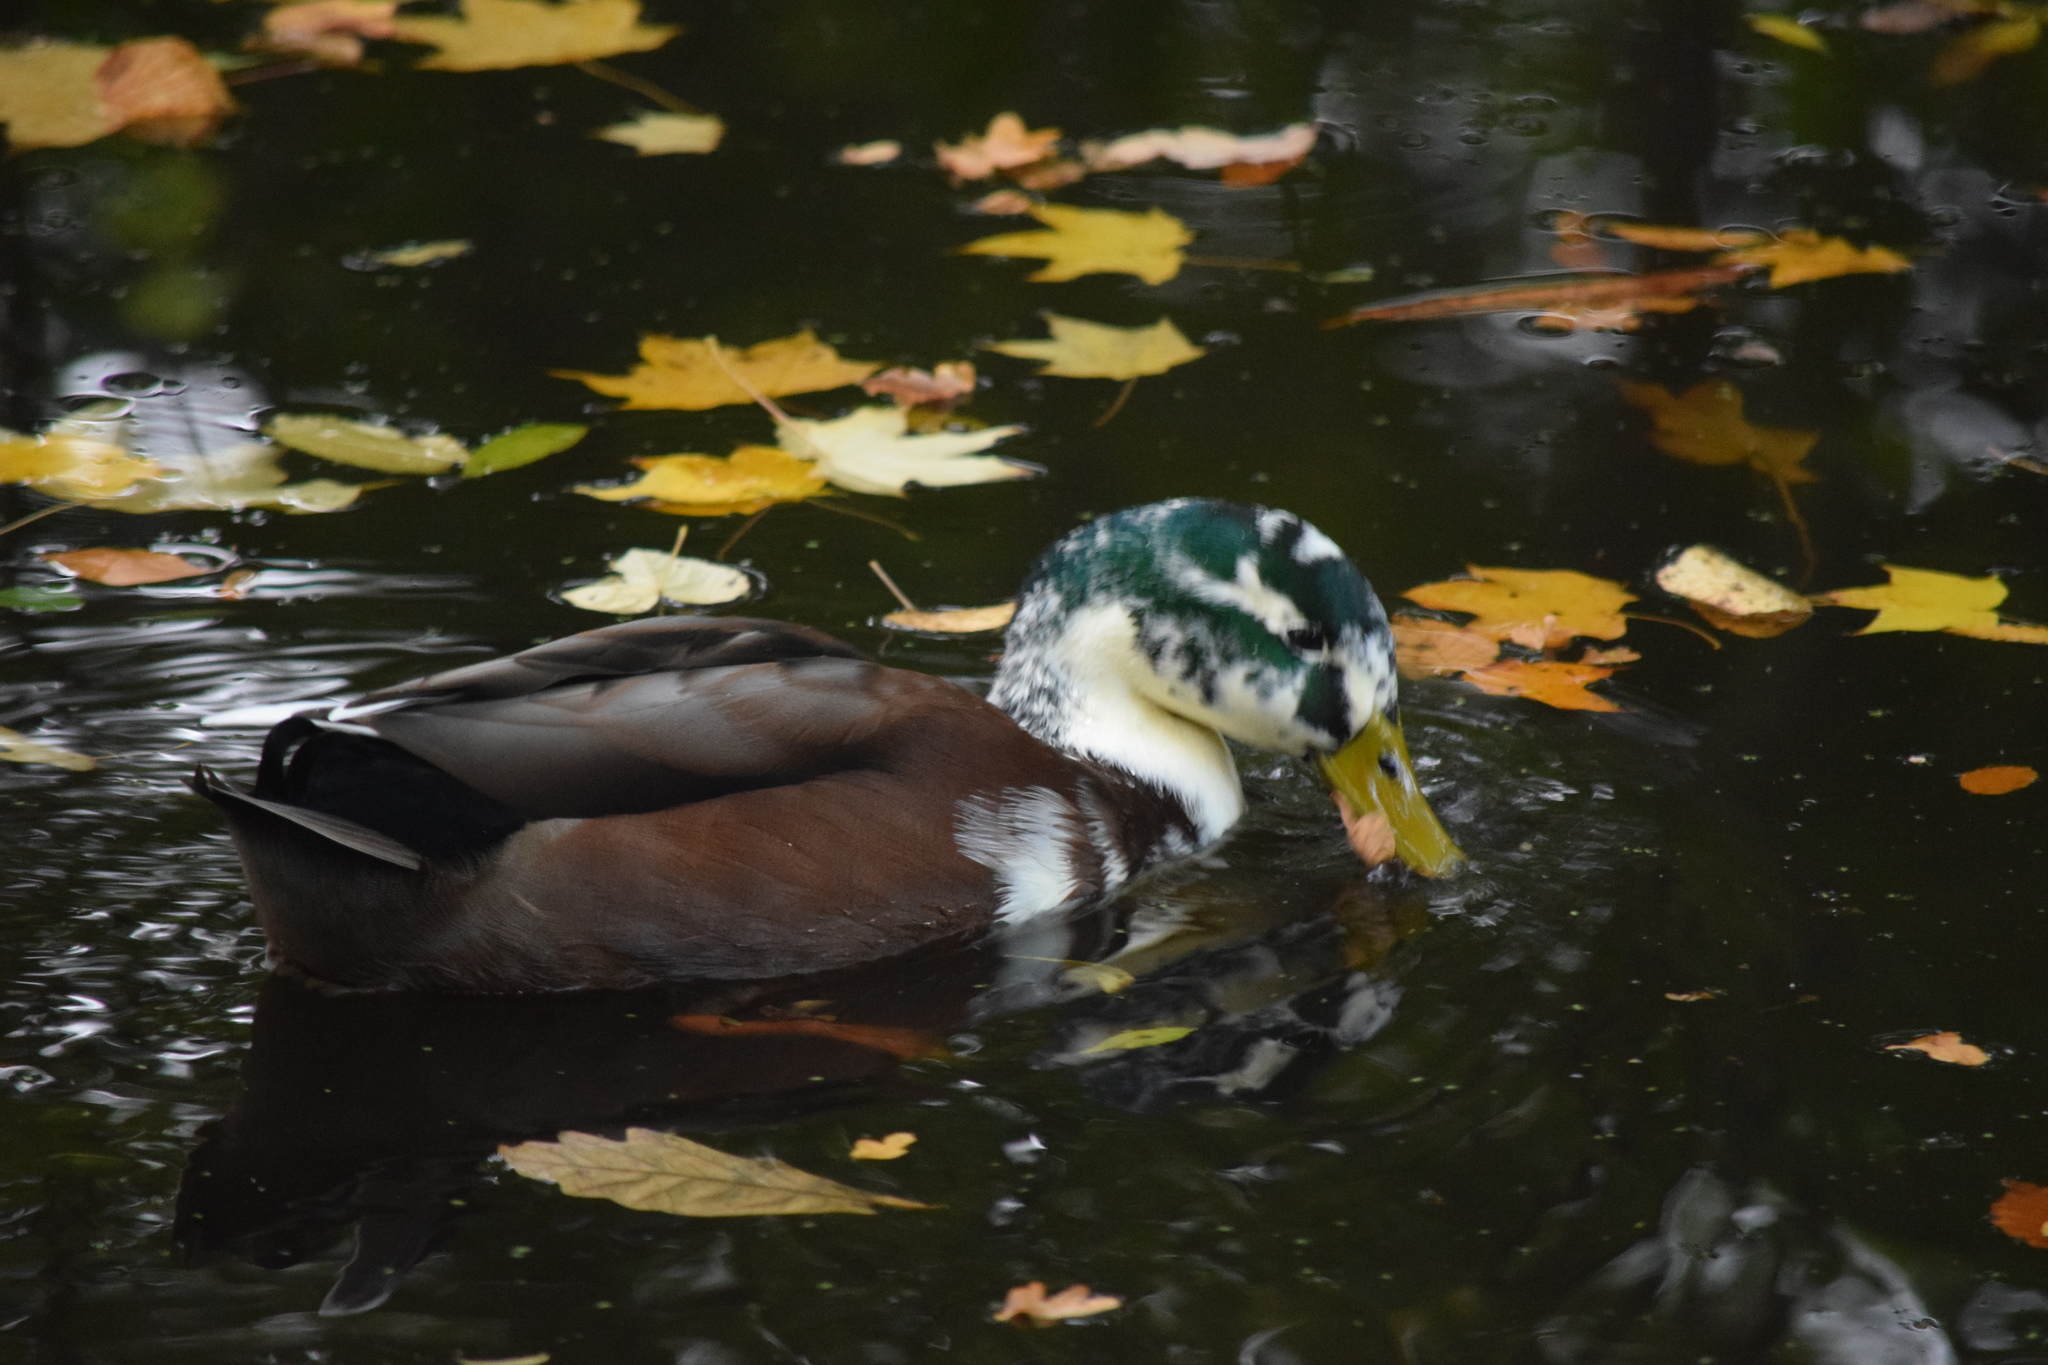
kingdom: Animalia
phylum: Chordata
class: Aves
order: Anseriformes
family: Anatidae
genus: Anas
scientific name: Anas platyrhynchos
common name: Mallard
